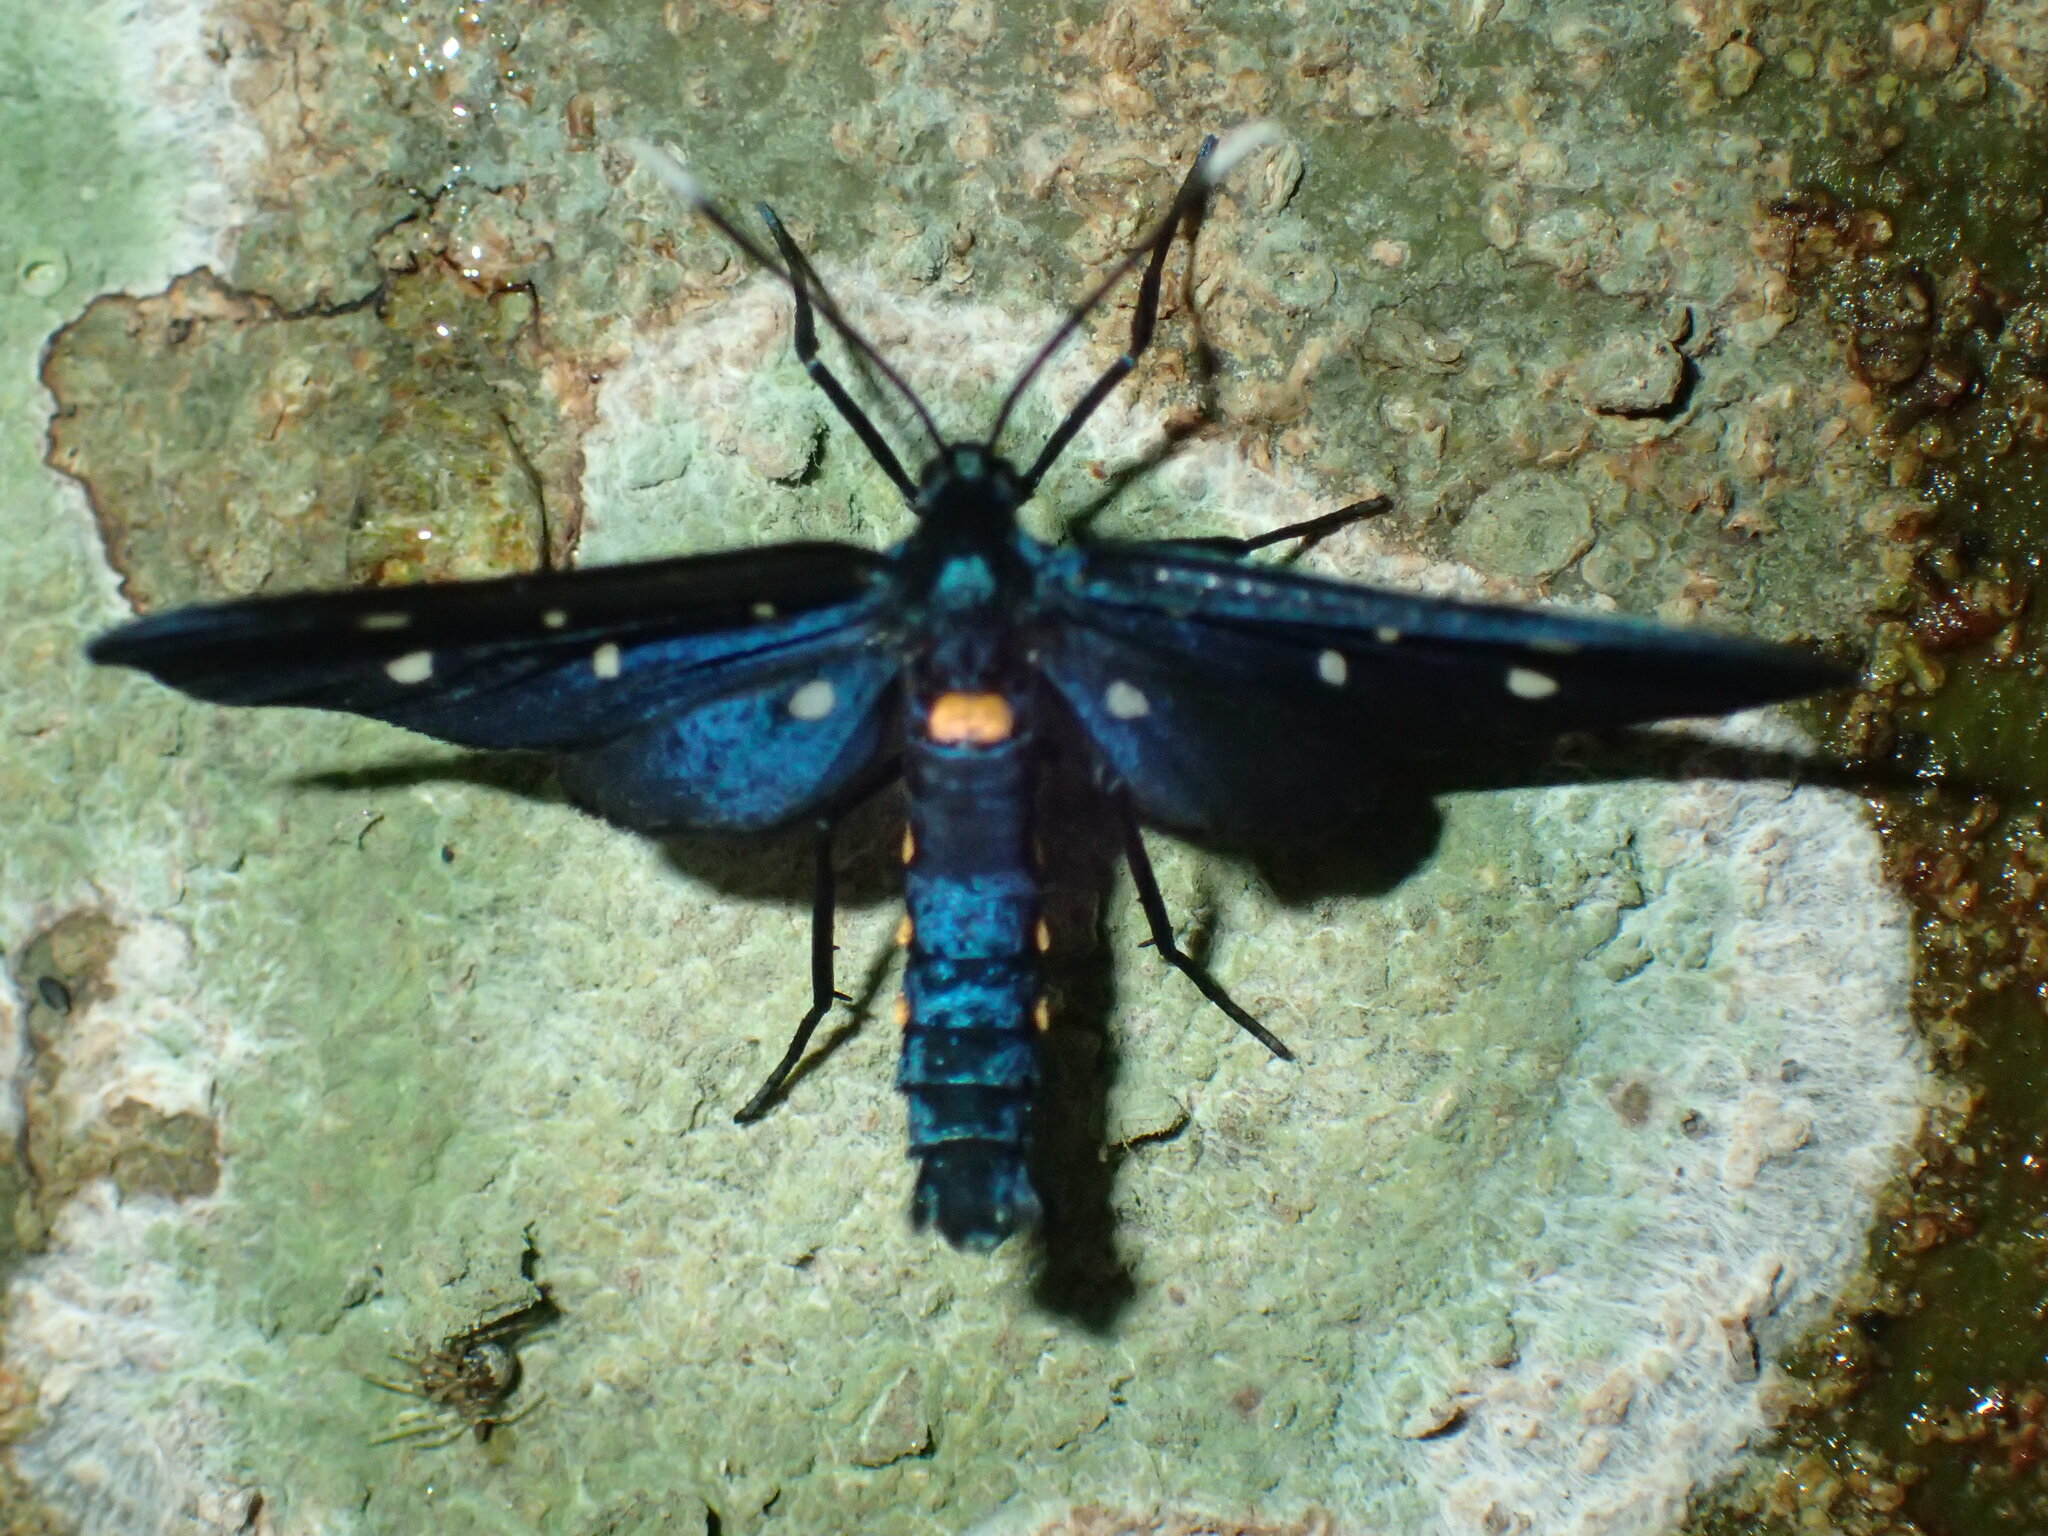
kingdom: Animalia
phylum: Arthropoda
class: Insecta
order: Lepidoptera
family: Erebidae
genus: Amata
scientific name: Amata simplex
